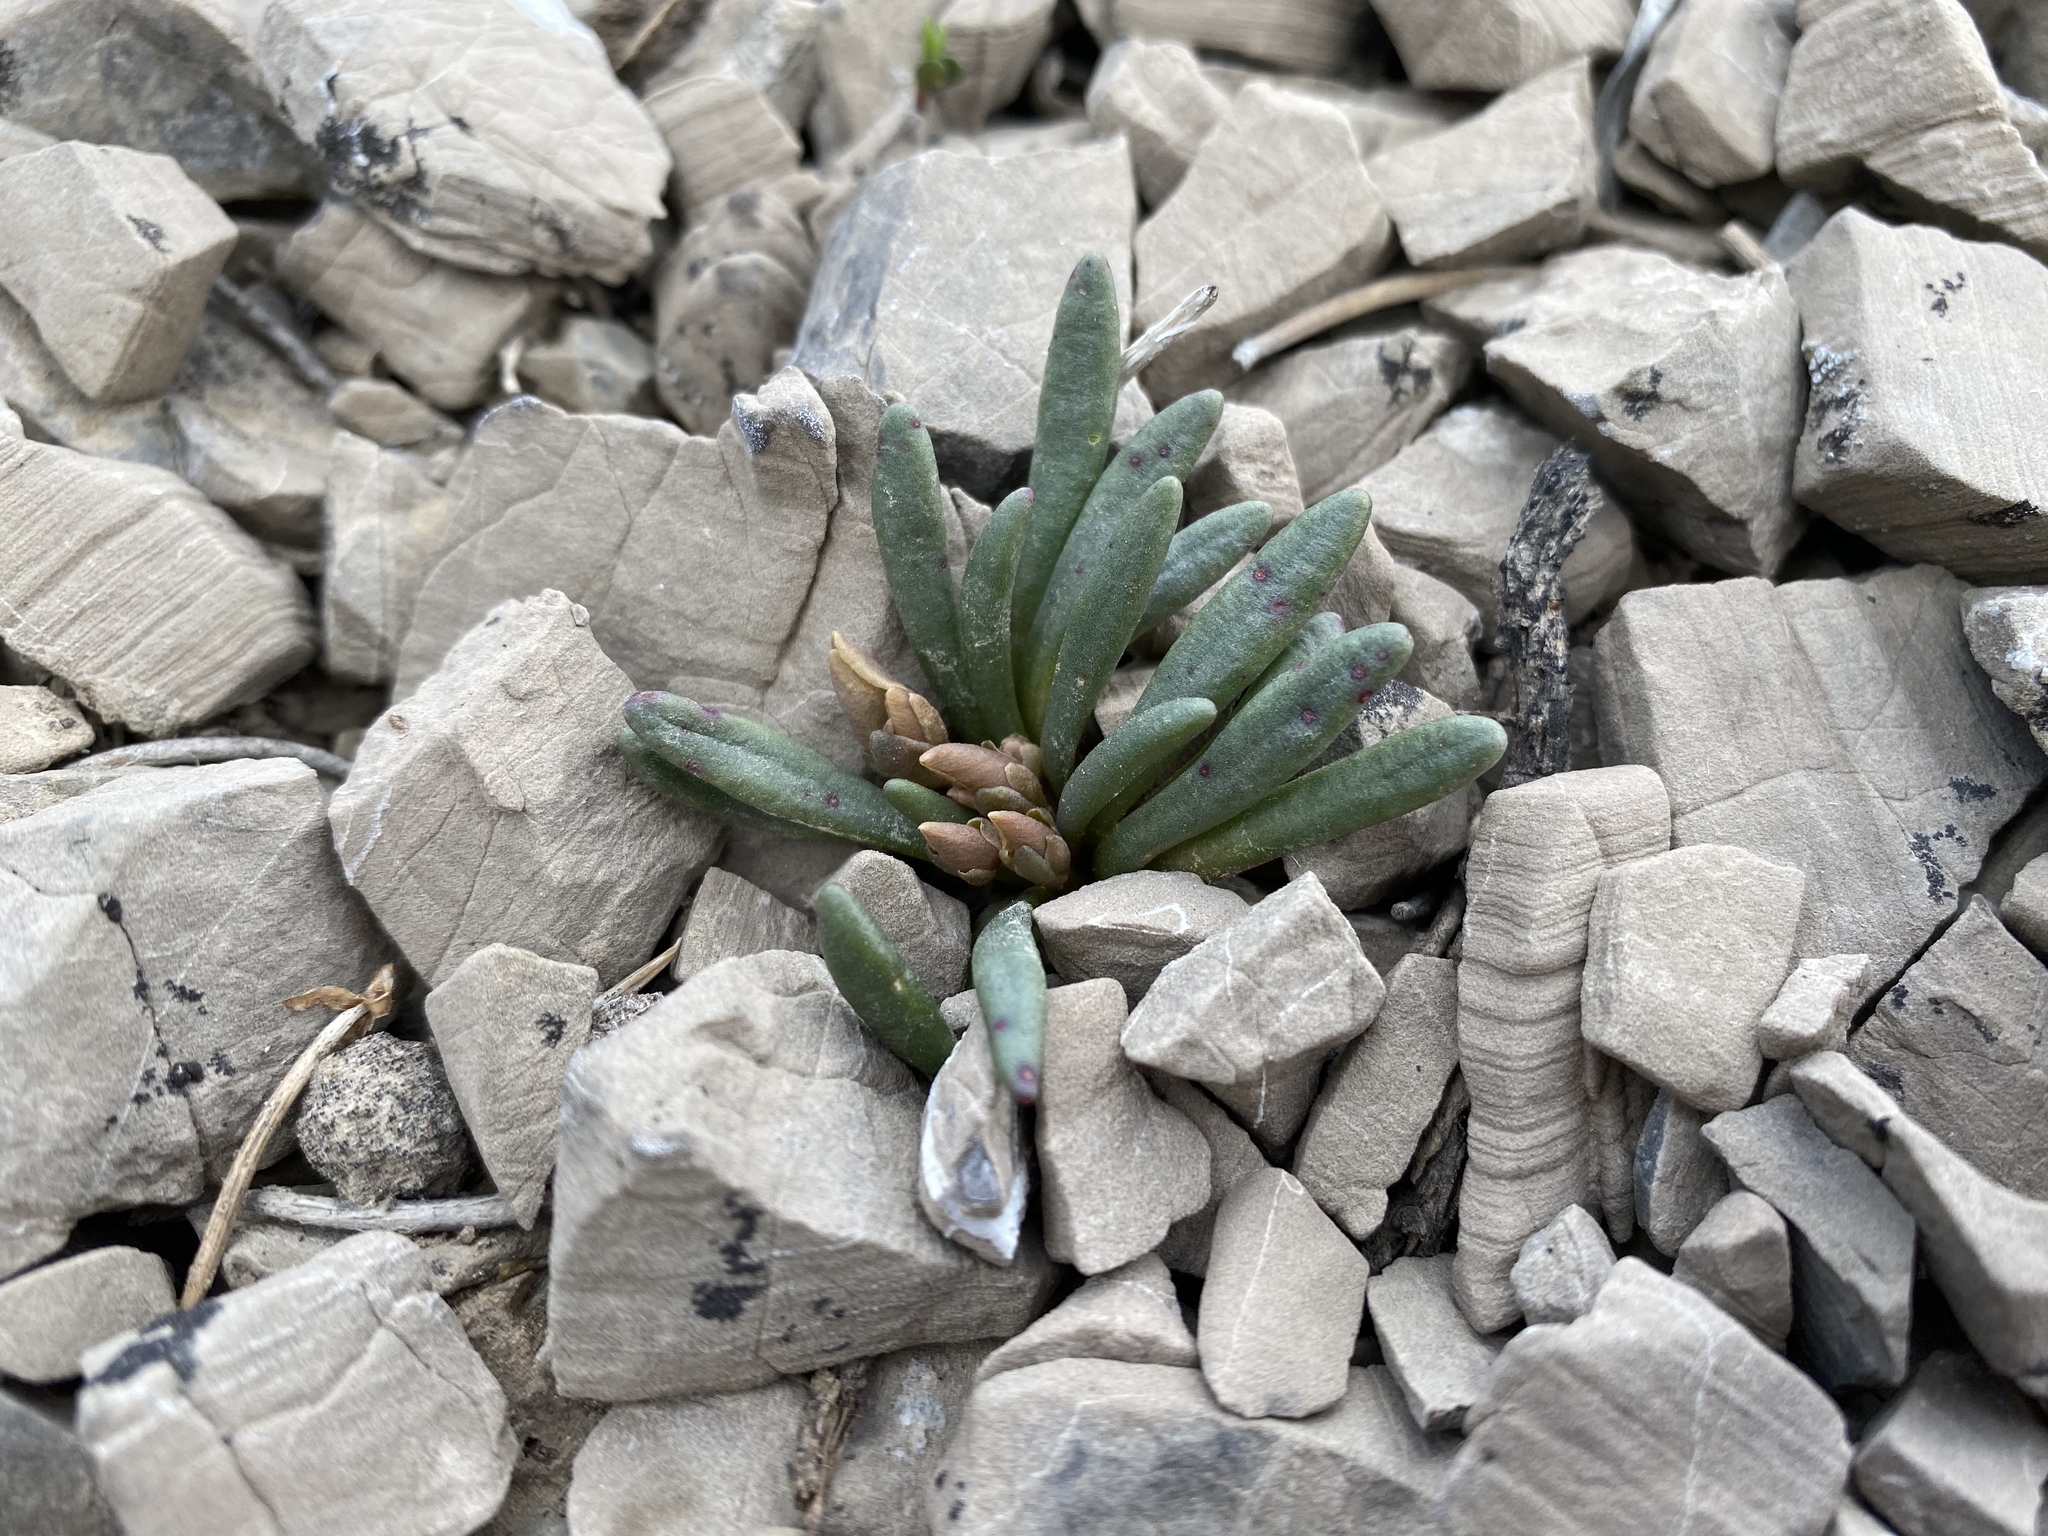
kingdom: Plantae
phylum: Tracheophyta
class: Magnoliopsida
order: Caryophyllales
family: Montiaceae
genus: Lewisia
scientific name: Lewisia maguirei
